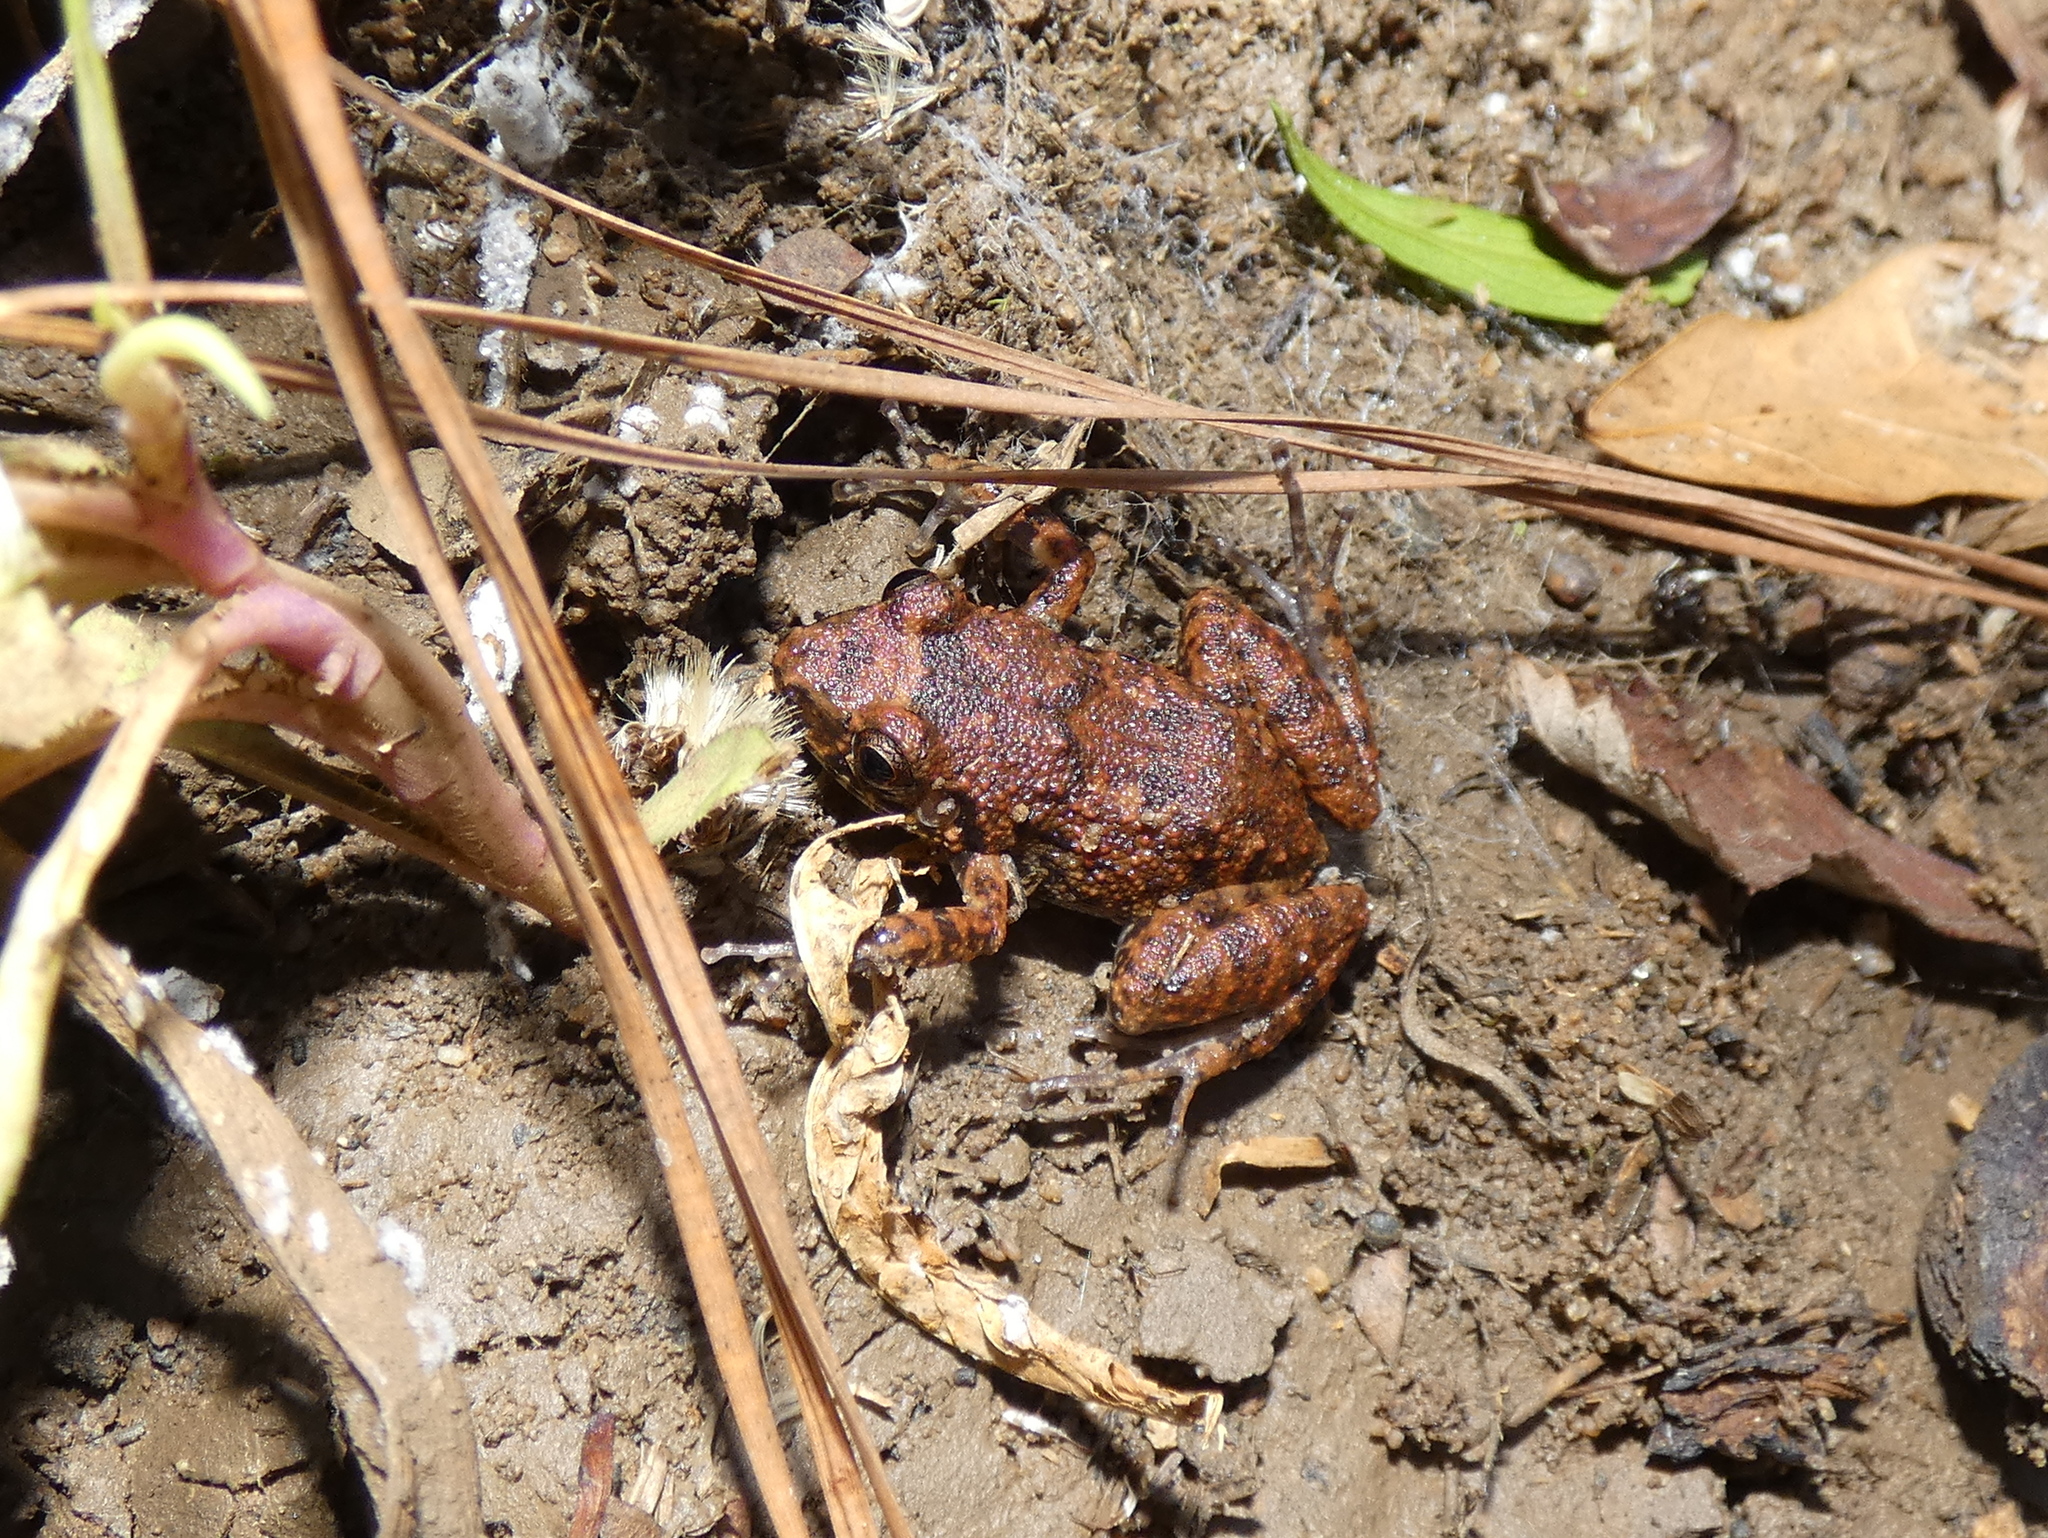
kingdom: Animalia
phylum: Chordata
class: Amphibia
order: Anura
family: Eleutherodactylidae
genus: Eleutherodactylus
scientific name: Eleutherodactylus planirostris
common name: Greenhouse frog
